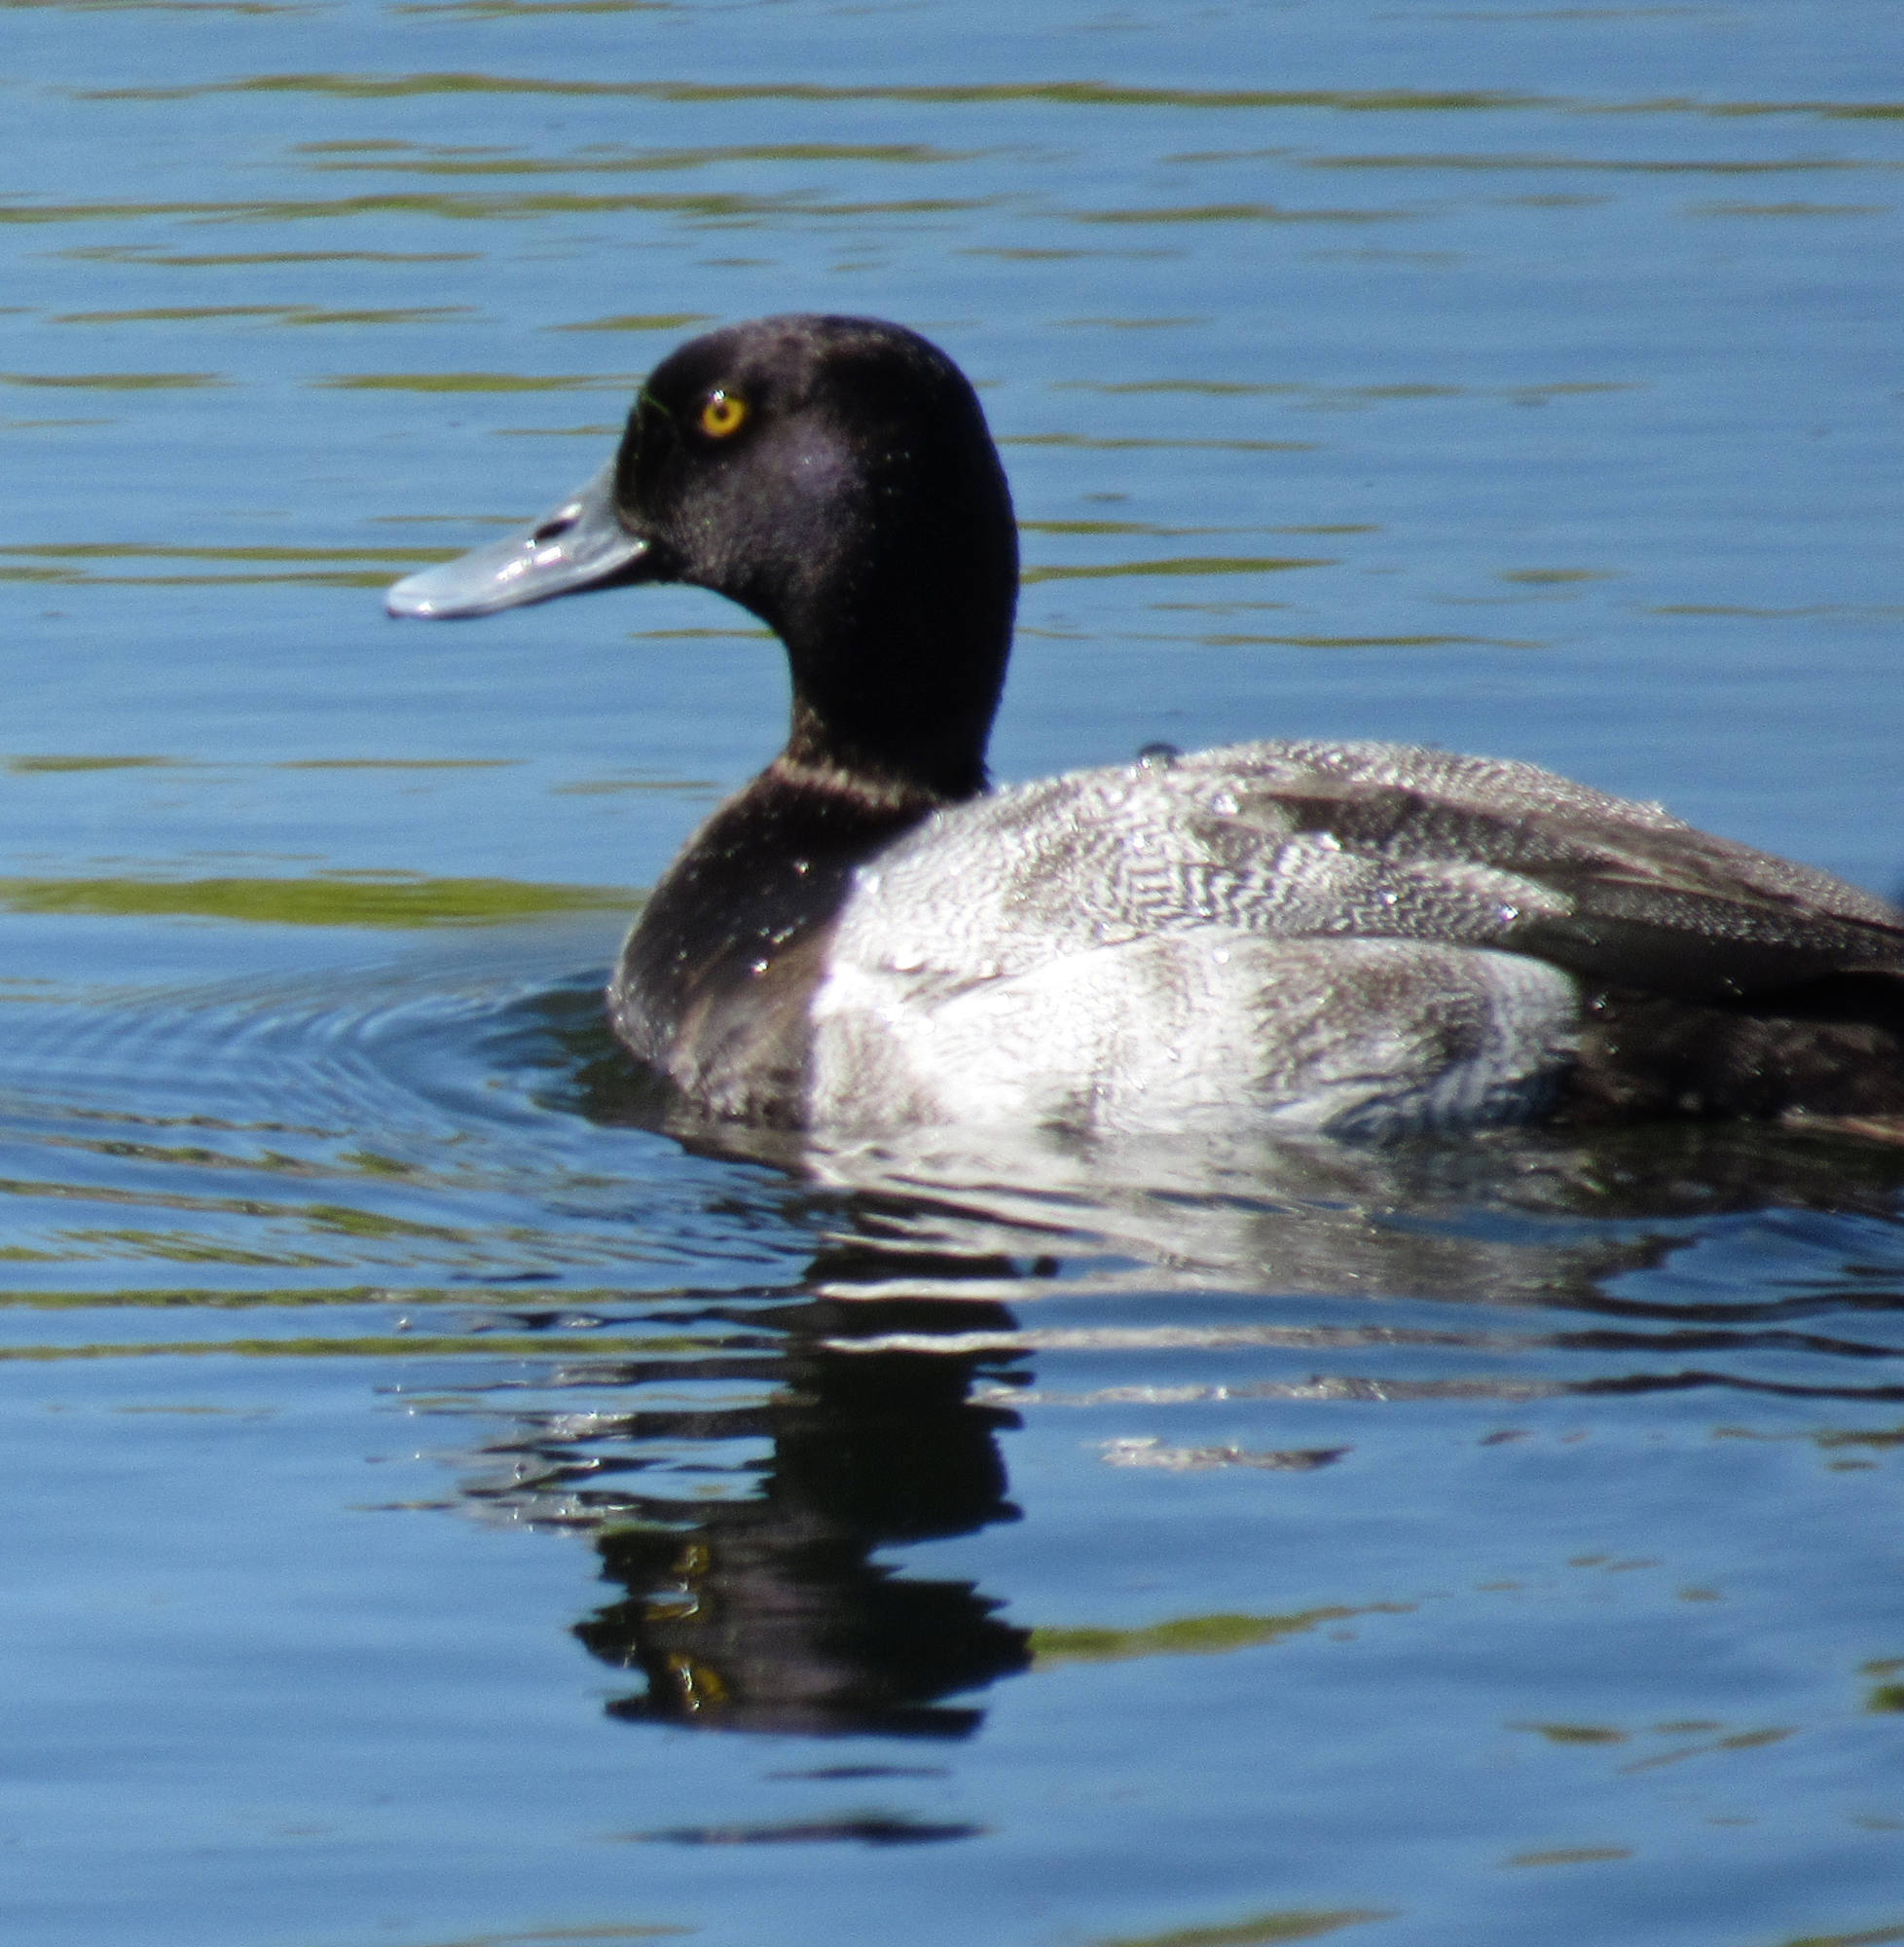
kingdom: Animalia
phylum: Chordata
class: Aves
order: Anseriformes
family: Anatidae
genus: Aythya
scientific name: Aythya marila
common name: Greater scaup
